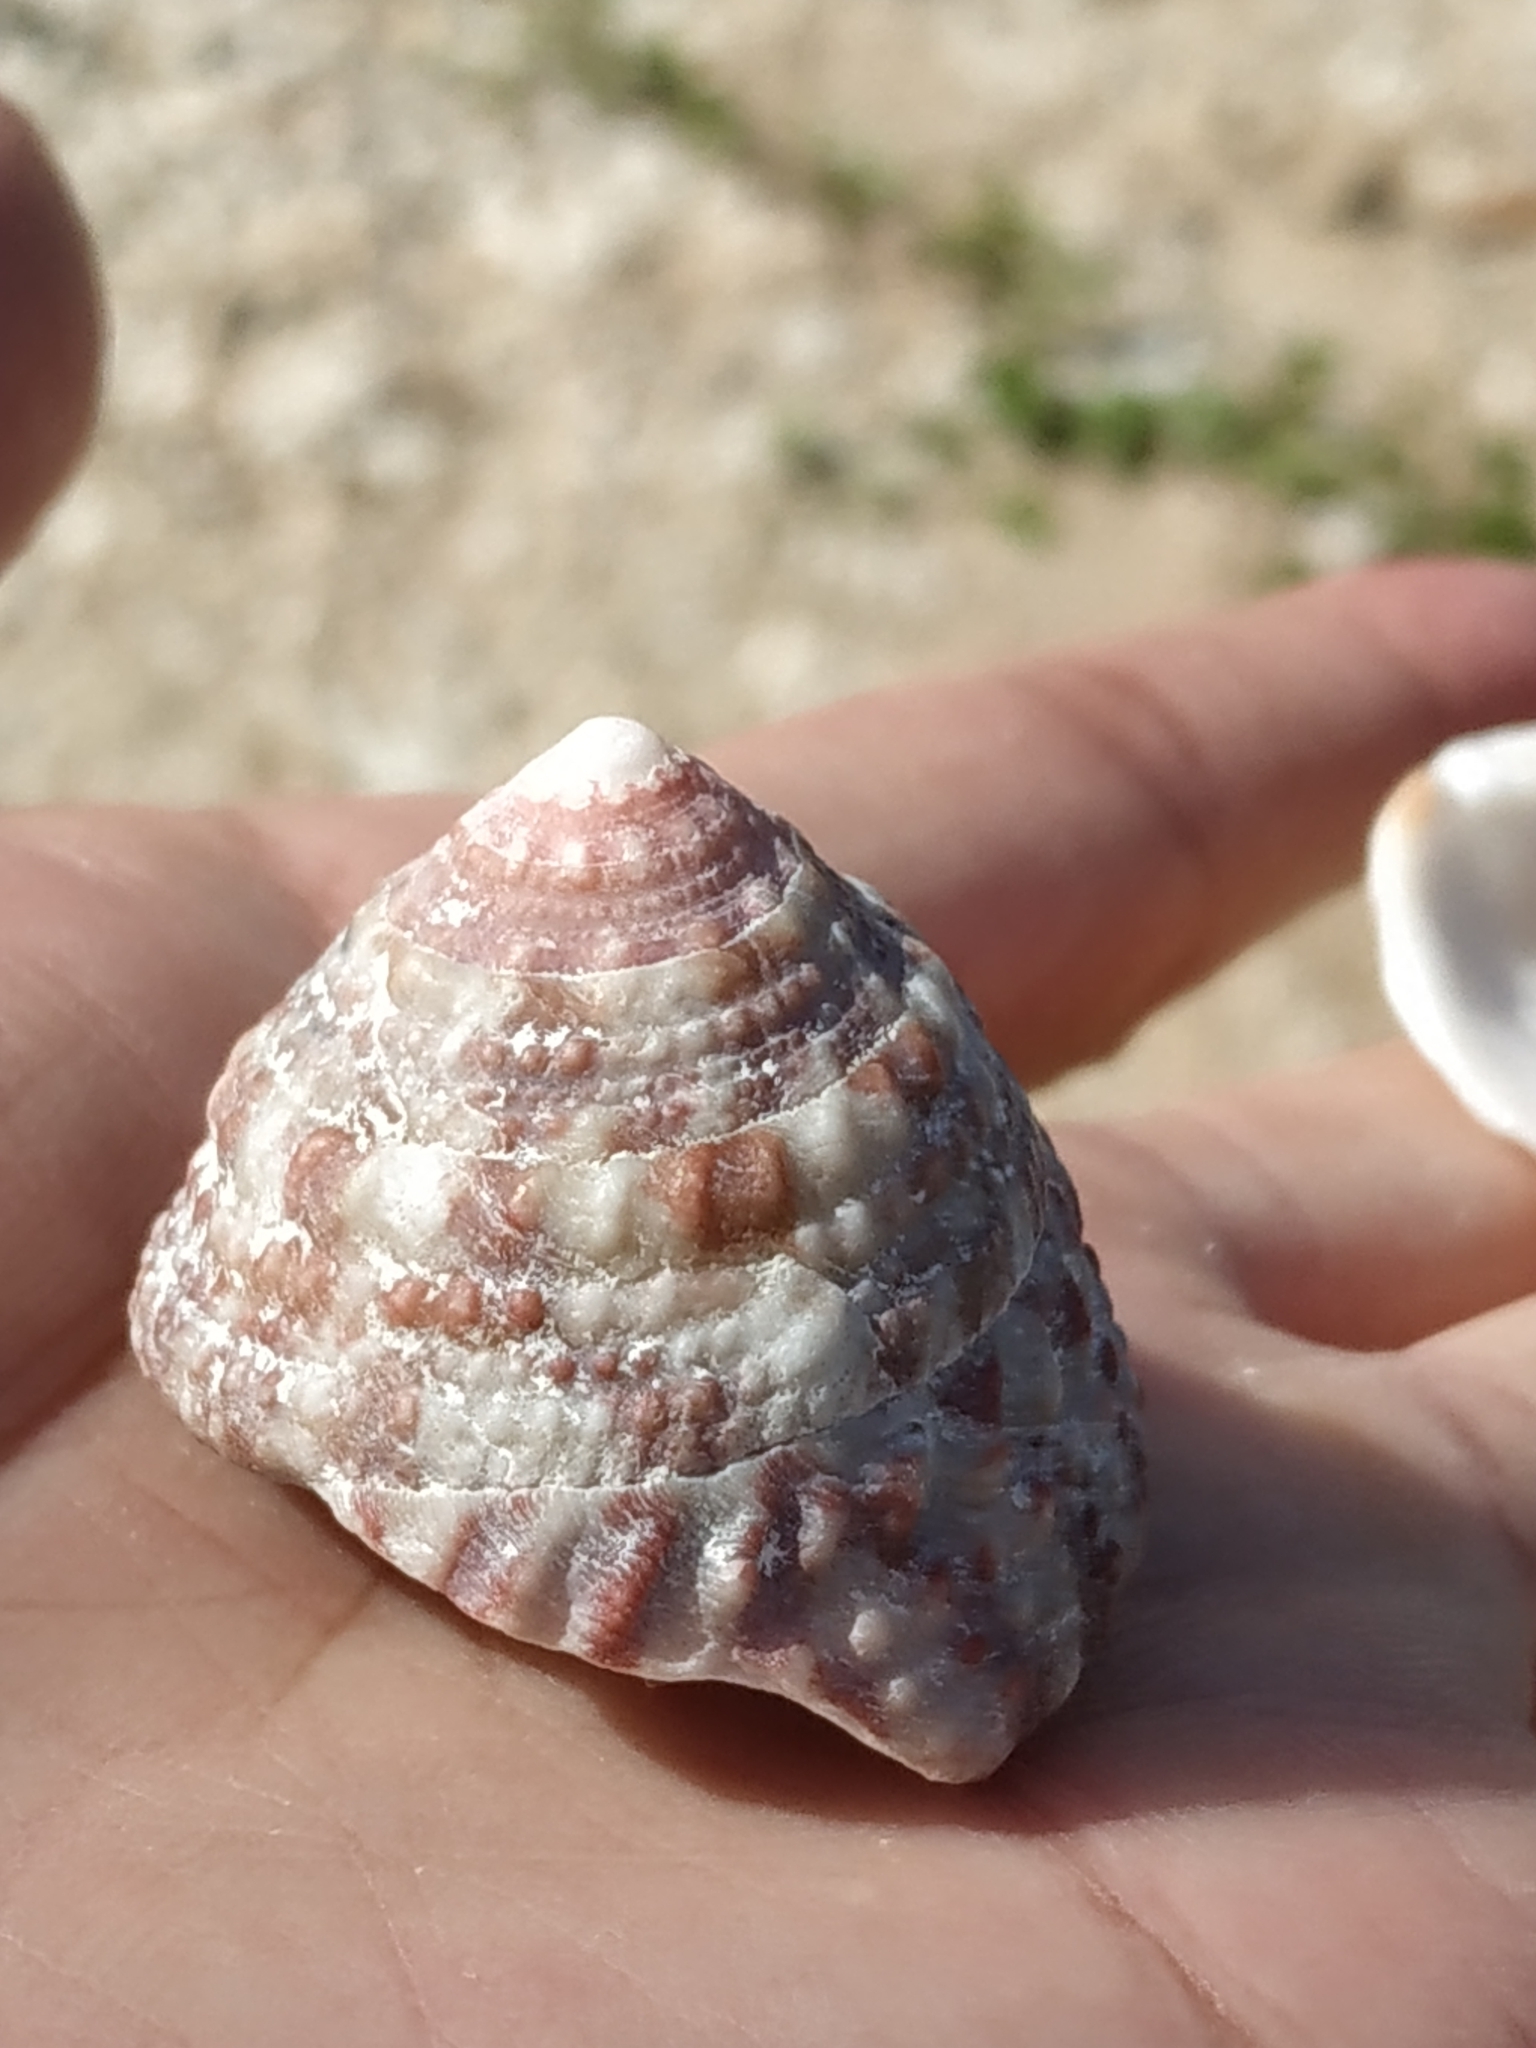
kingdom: Animalia
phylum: Mollusca
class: Gastropoda
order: Trochida
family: Trochidae
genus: Trochus
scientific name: Trochus maculatus
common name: Maculated top shell
